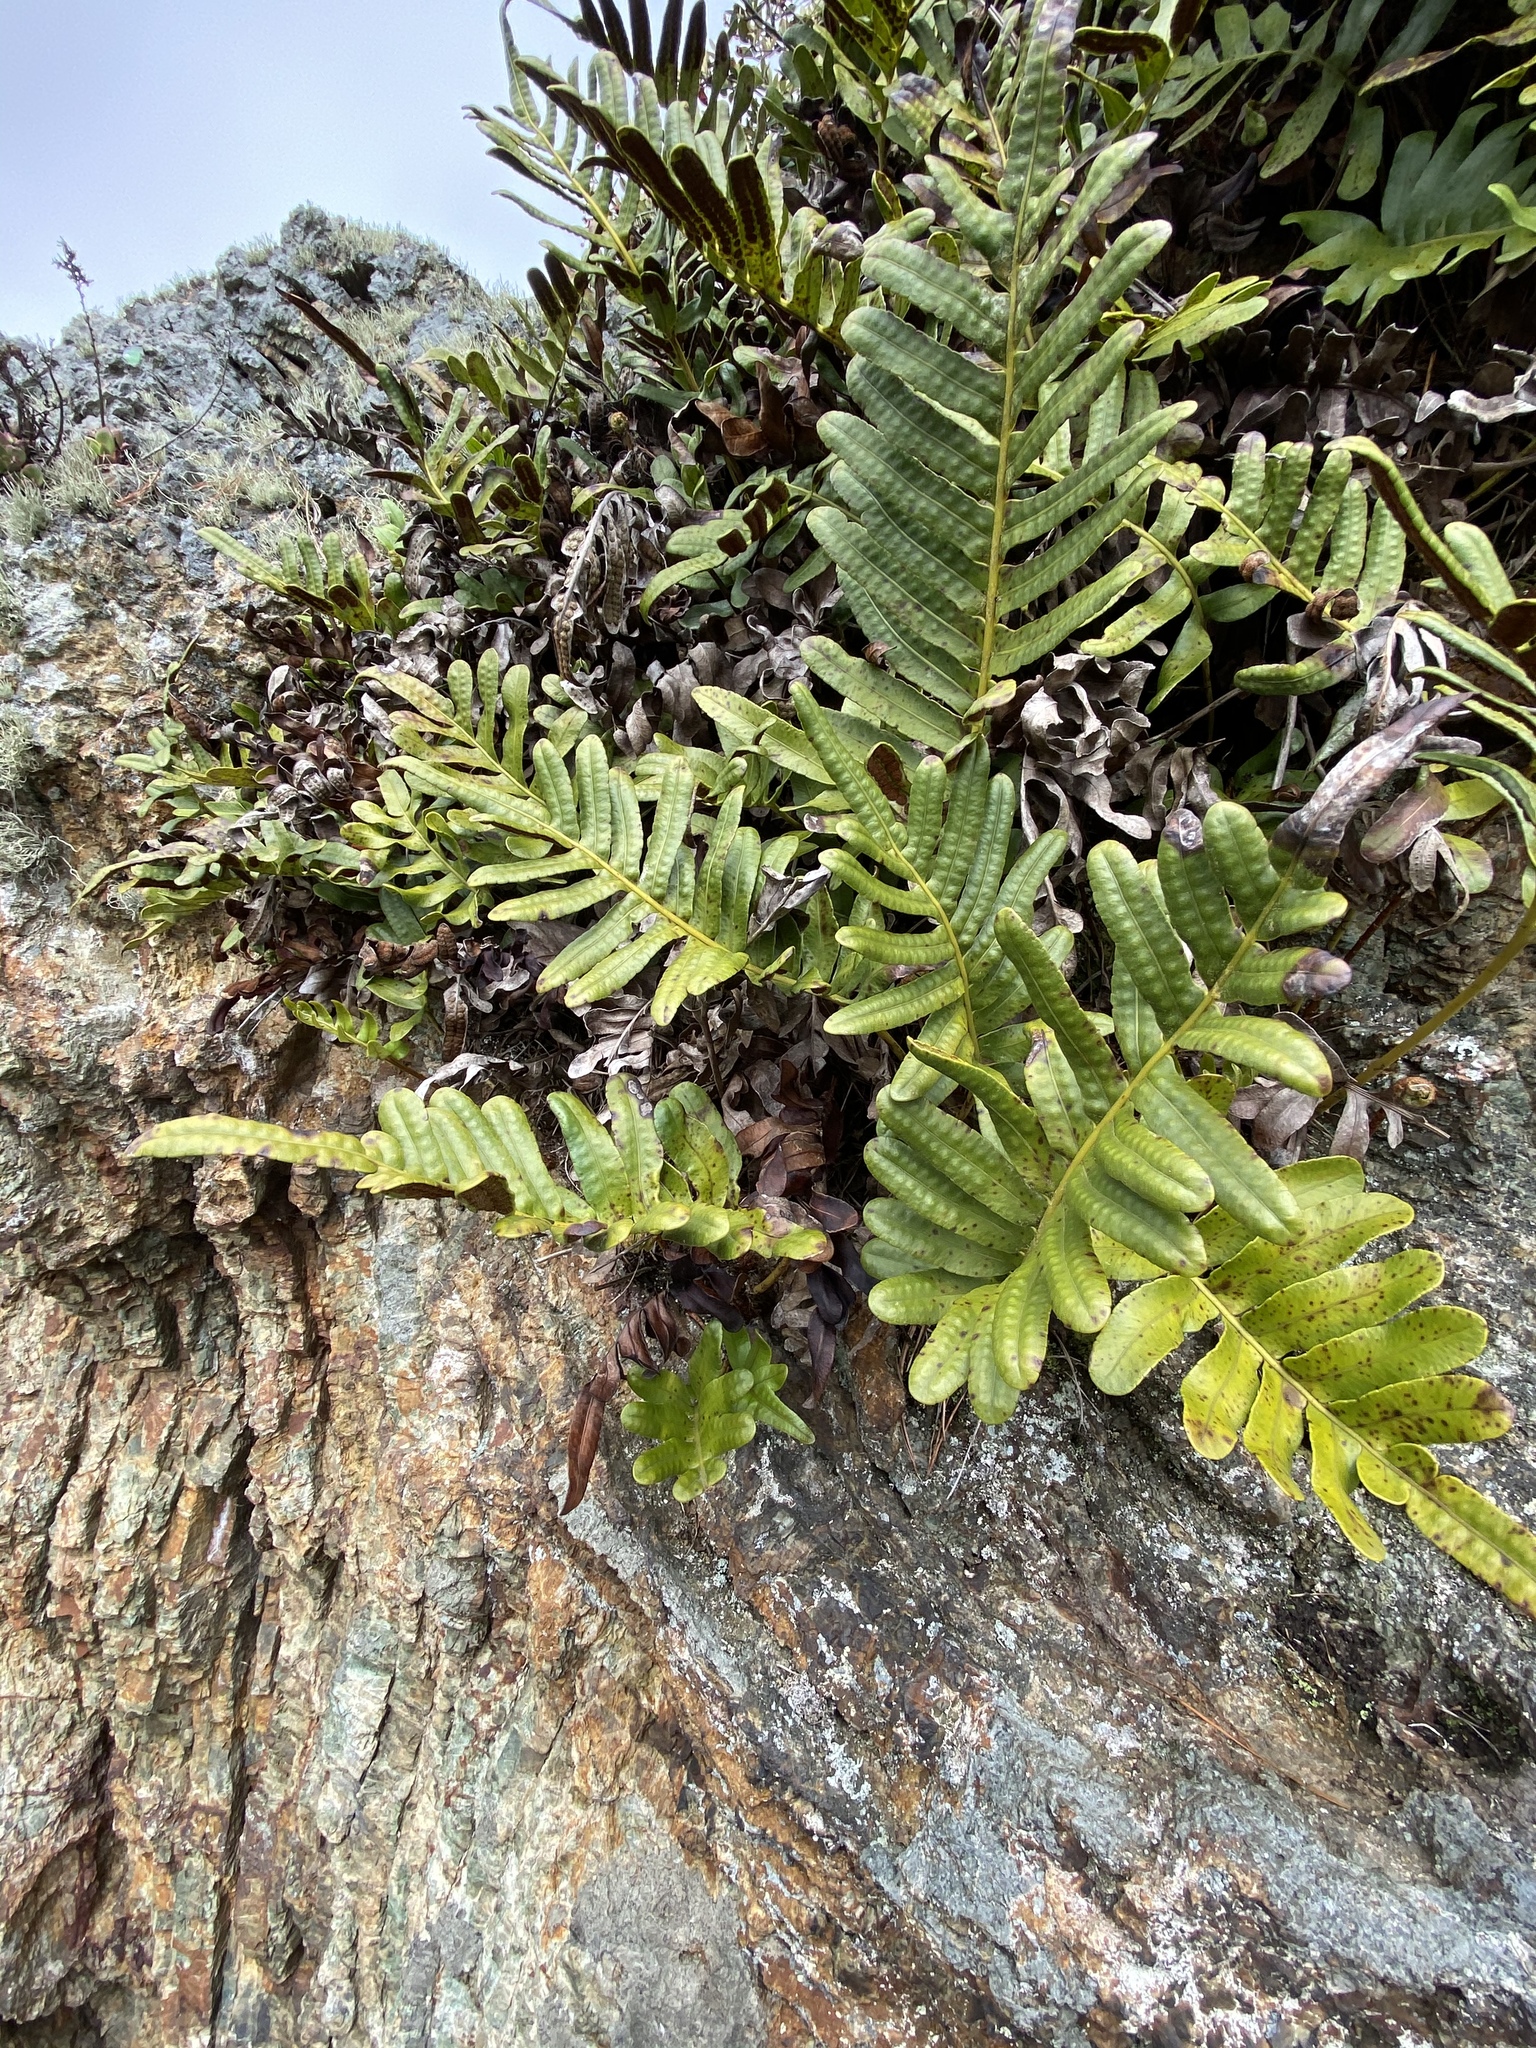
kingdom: Plantae
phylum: Tracheophyta
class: Polypodiopsida
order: Polypodiales
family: Polypodiaceae
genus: Polypodium
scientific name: Polypodium scouleri
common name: Scouler's polypody
